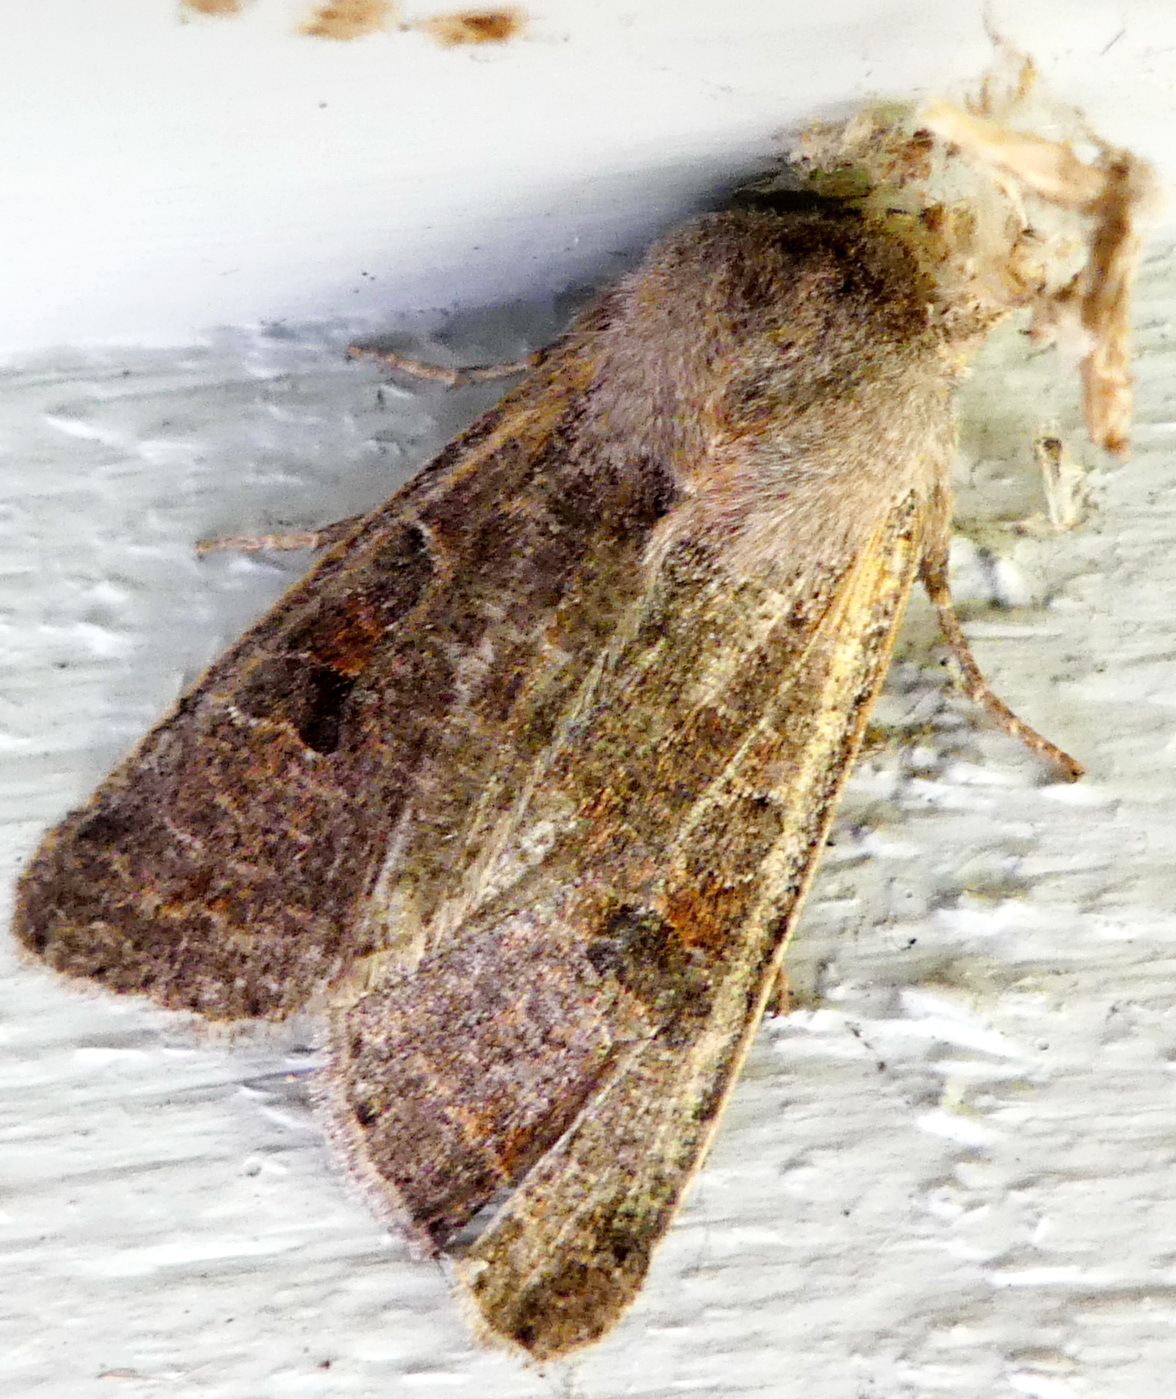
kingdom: Animalia
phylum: Arthropoda
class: Insecta
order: Lepidoptera
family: Noctuidae
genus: Orthosia
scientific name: Orthosia hibisci
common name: Green fruitworm
